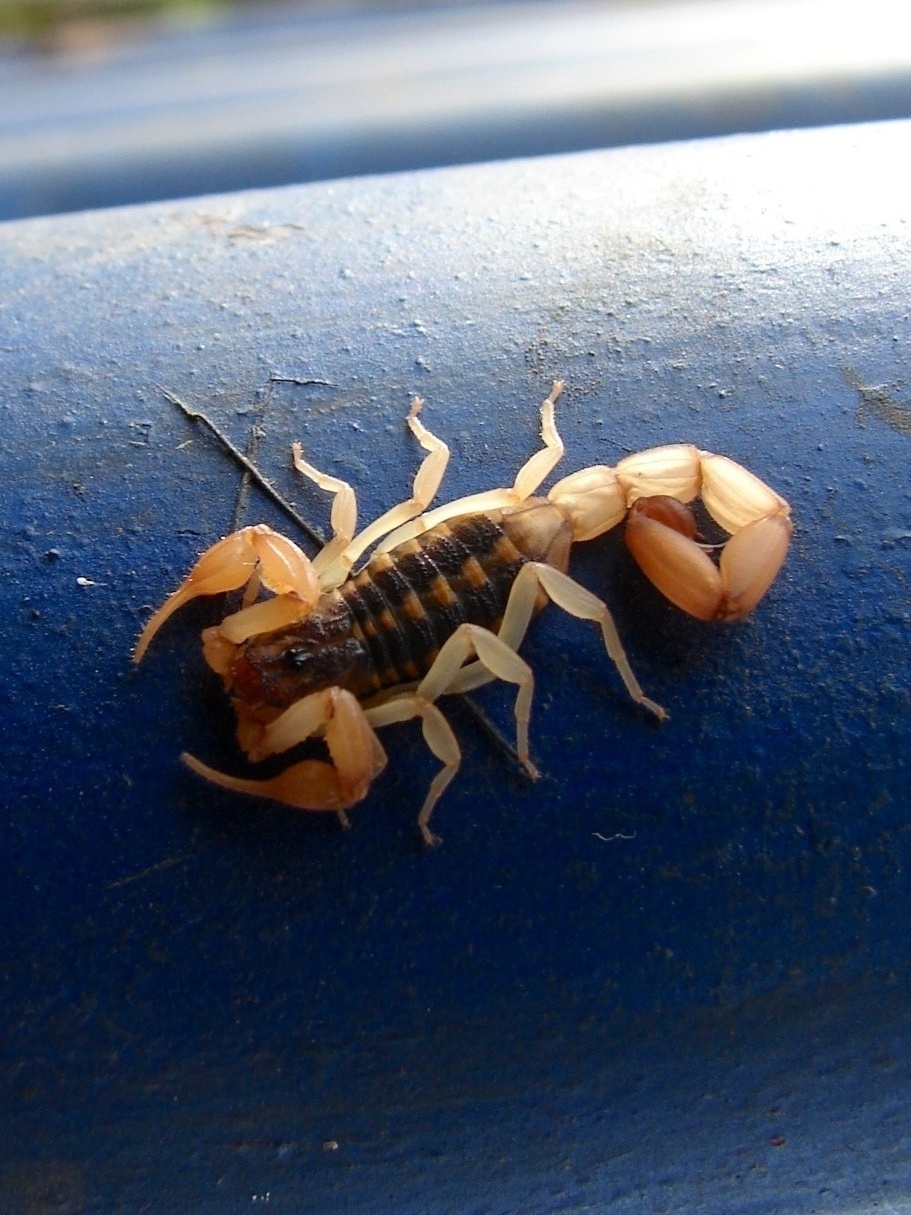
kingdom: Animalia
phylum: Arthropoda
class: Arachnida
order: Scorpiones
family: Buthidae
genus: Centruroides
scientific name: Centruroides
